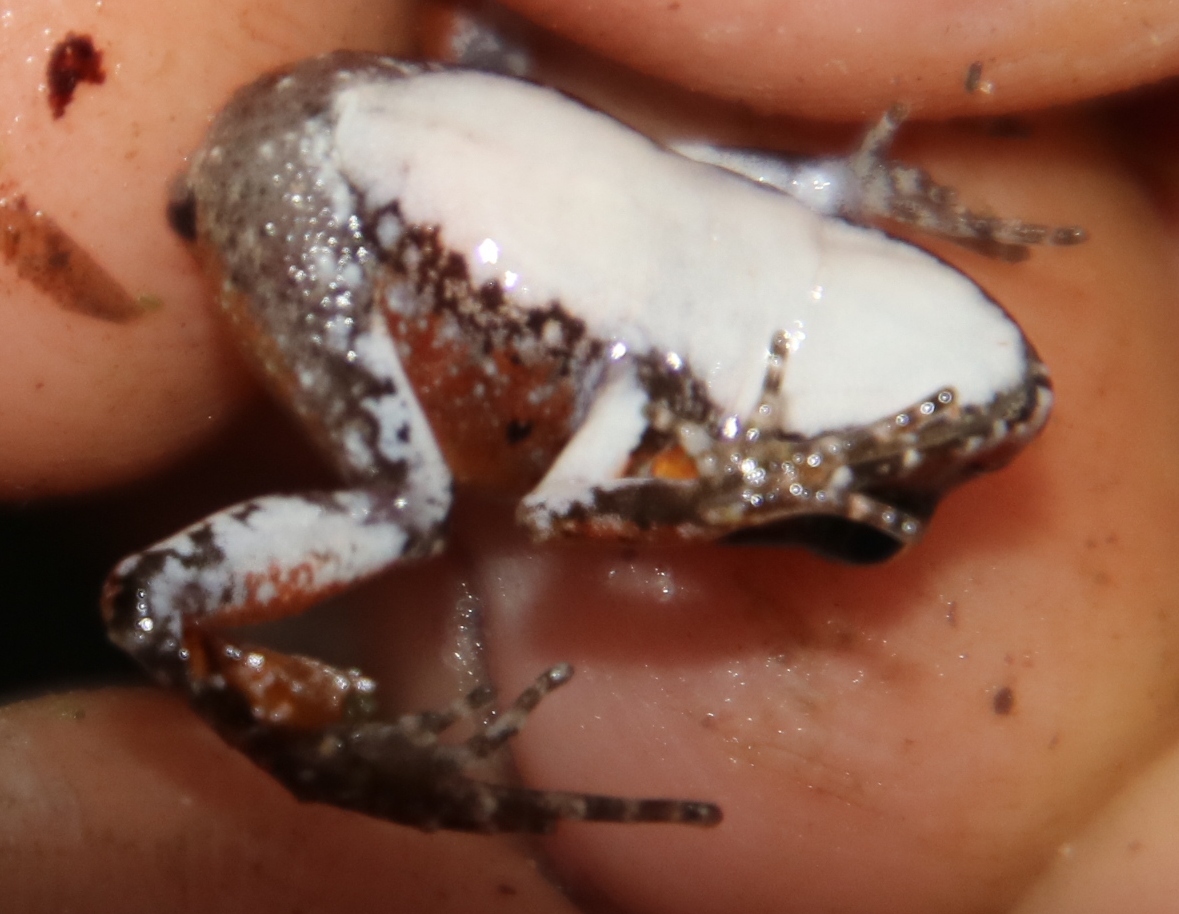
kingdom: Animalia
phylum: Chordata
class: Amphibia
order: Anura
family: Pyxicephalidae
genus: Arthroleptella
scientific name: Arthroleptella lightfooti
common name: Cape peninsula chirping frog
